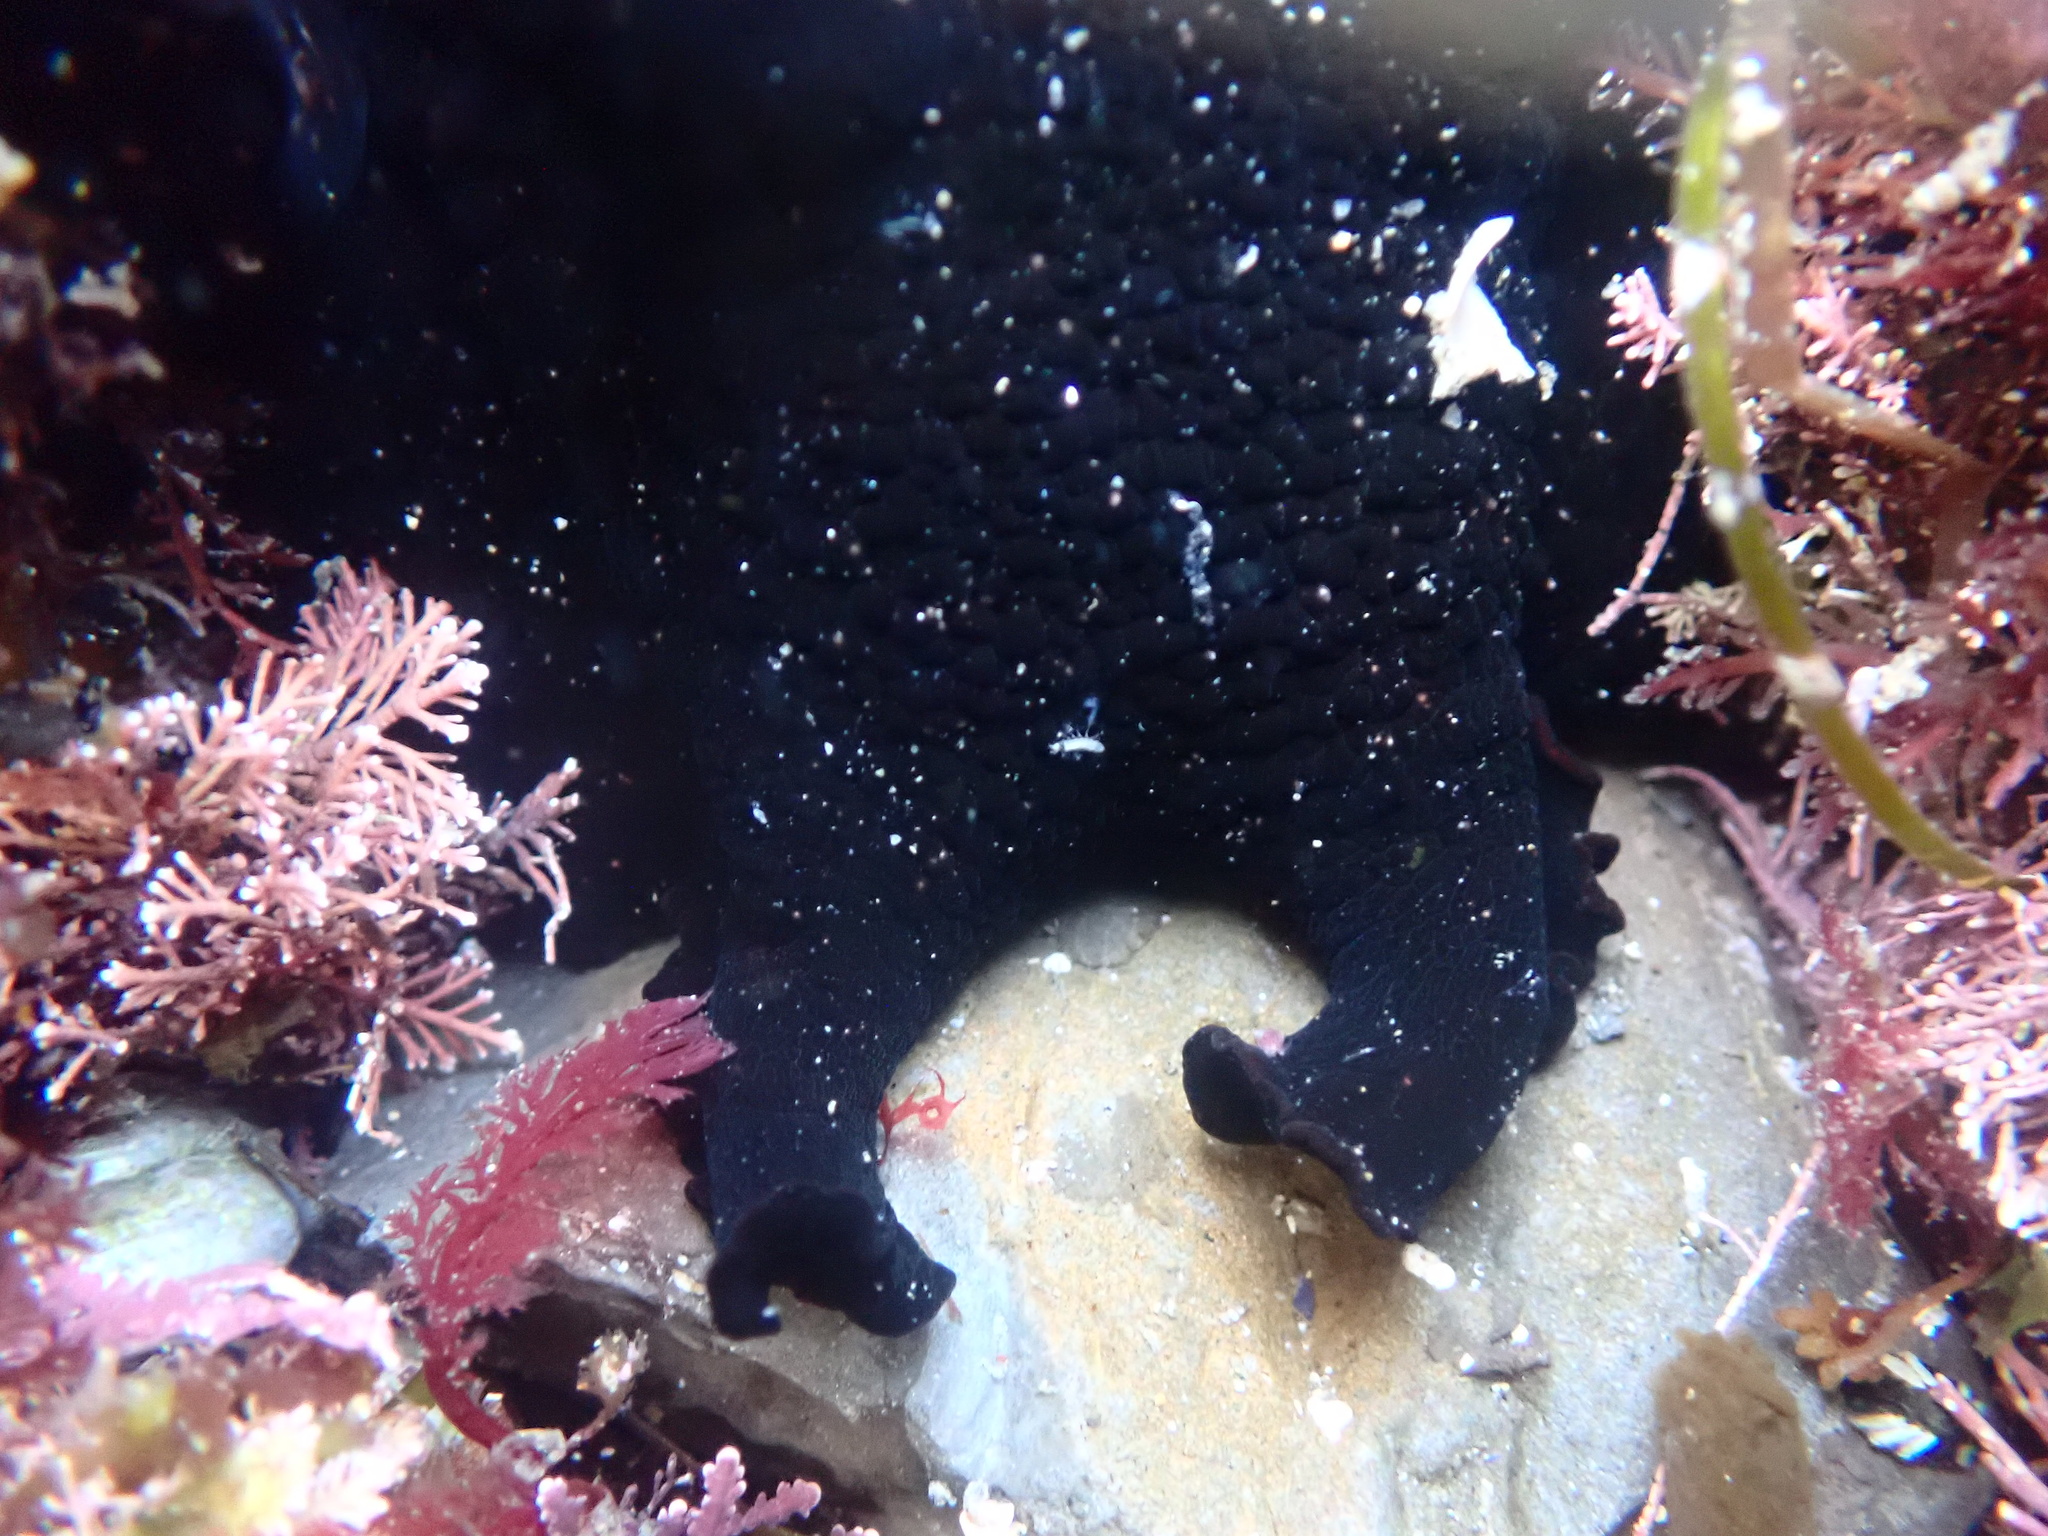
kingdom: Animalia
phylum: Mollusca
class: Gastropoda
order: Aplysiida
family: Aplysiidae
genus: Aplysia
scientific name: Aplysia vaccaria
